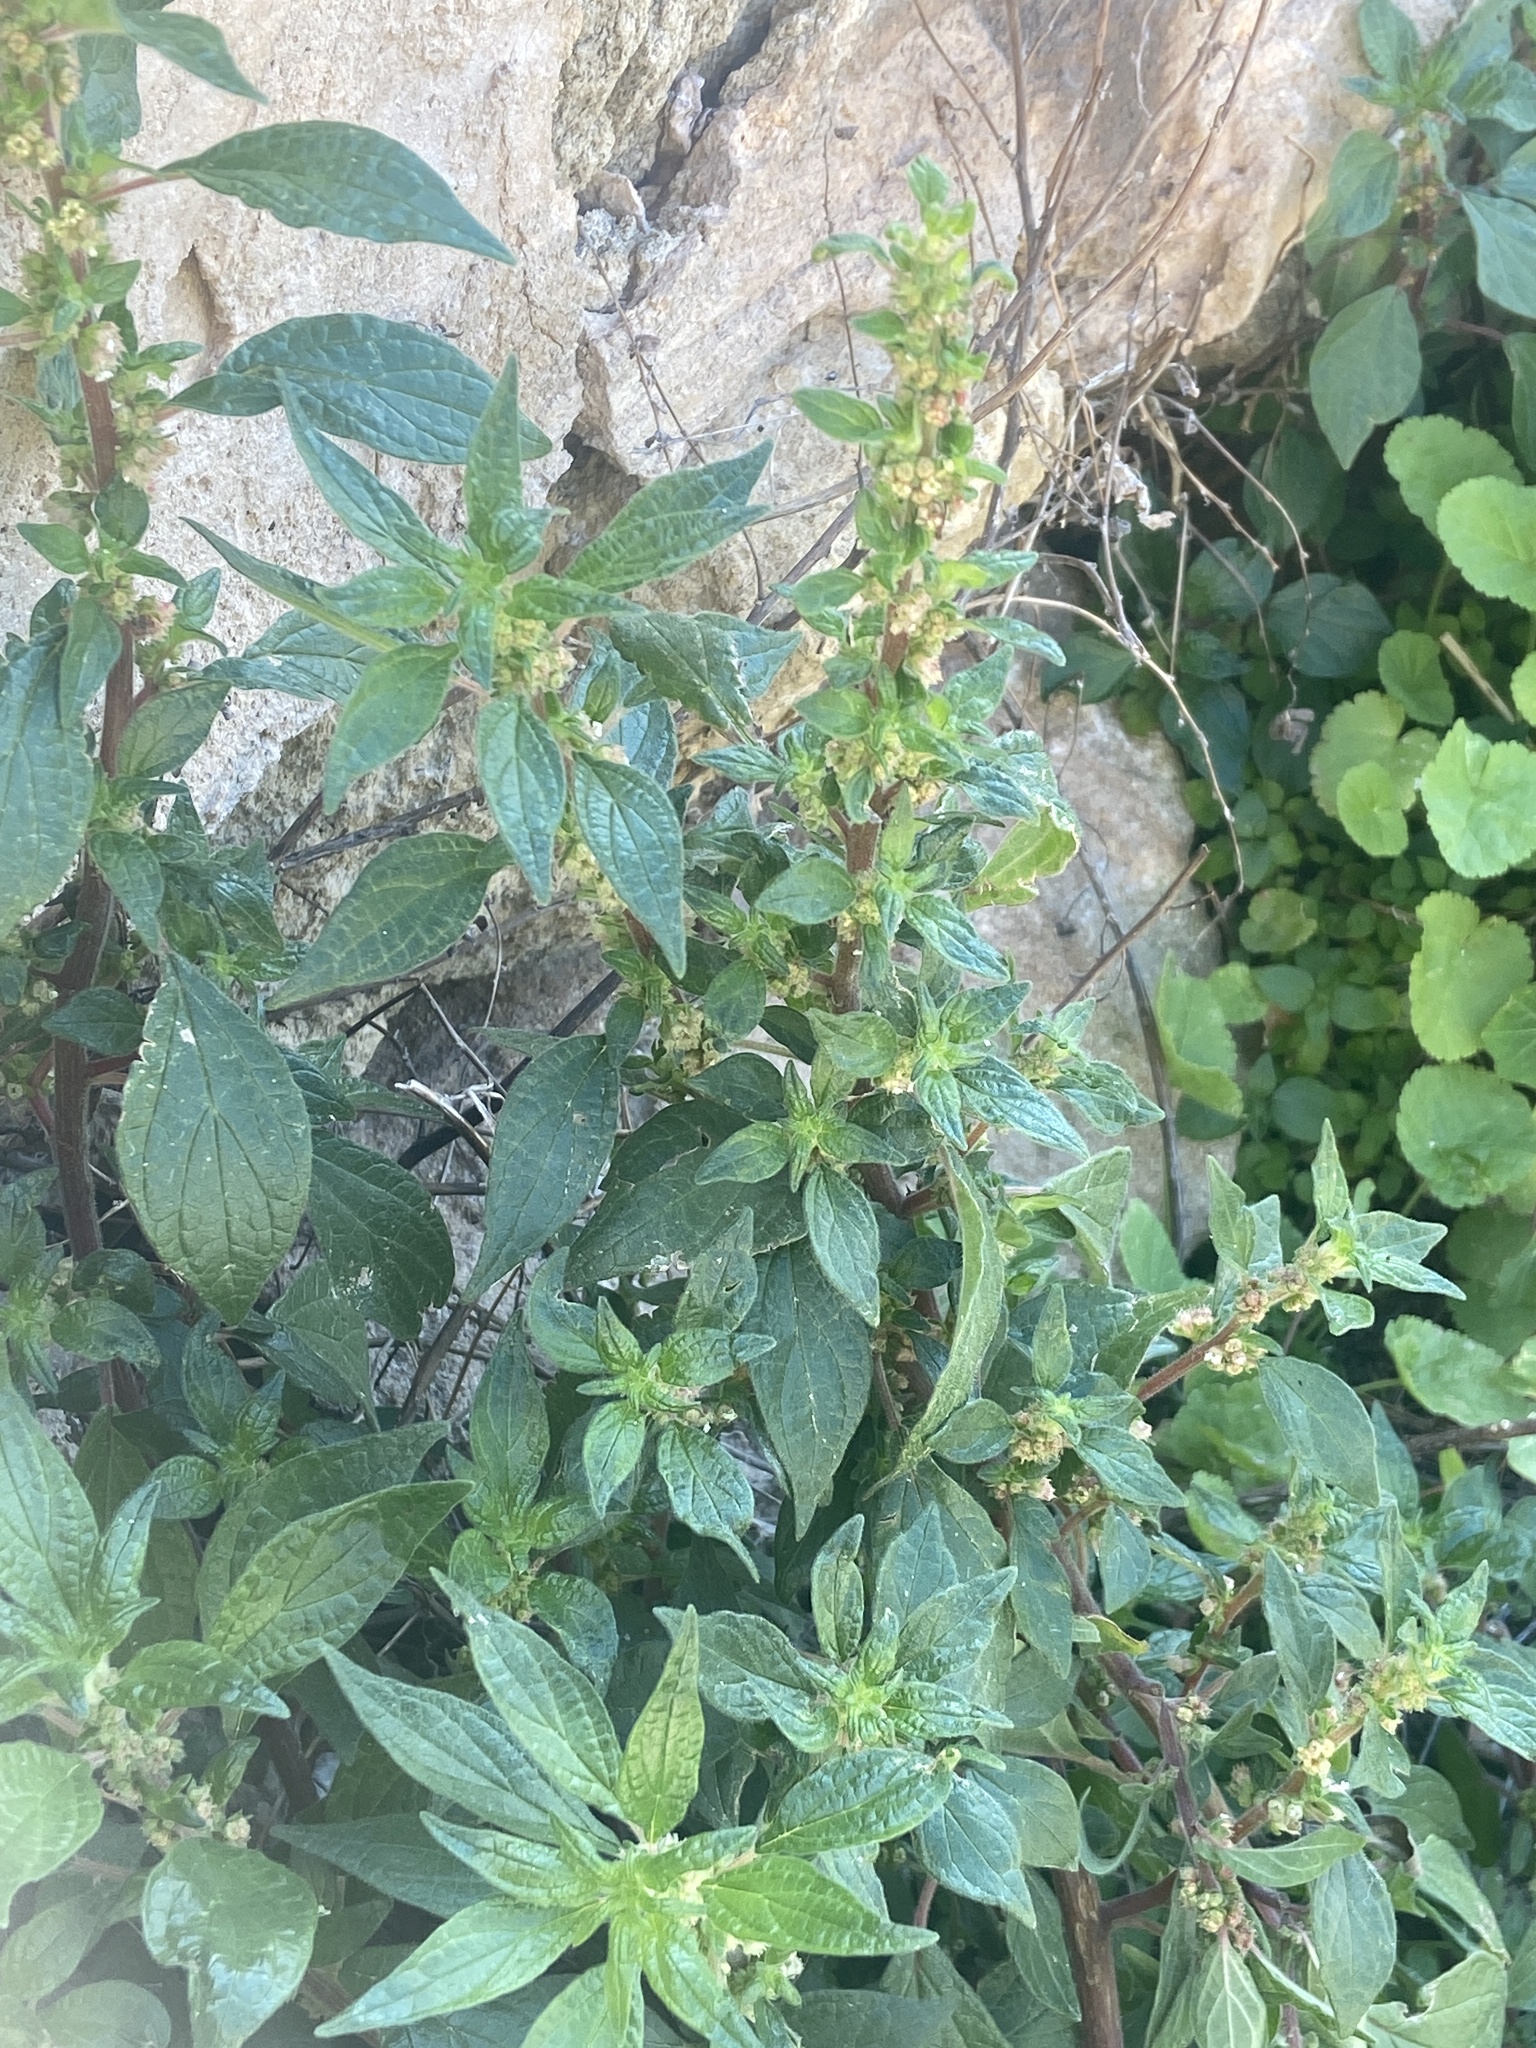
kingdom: Plantae
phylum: Tracheophyta
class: Magnoliopsida
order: Rosales
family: Urticaceae
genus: Parietaria
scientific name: Parietaria judaica
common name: Pellitory-of-the-wall
